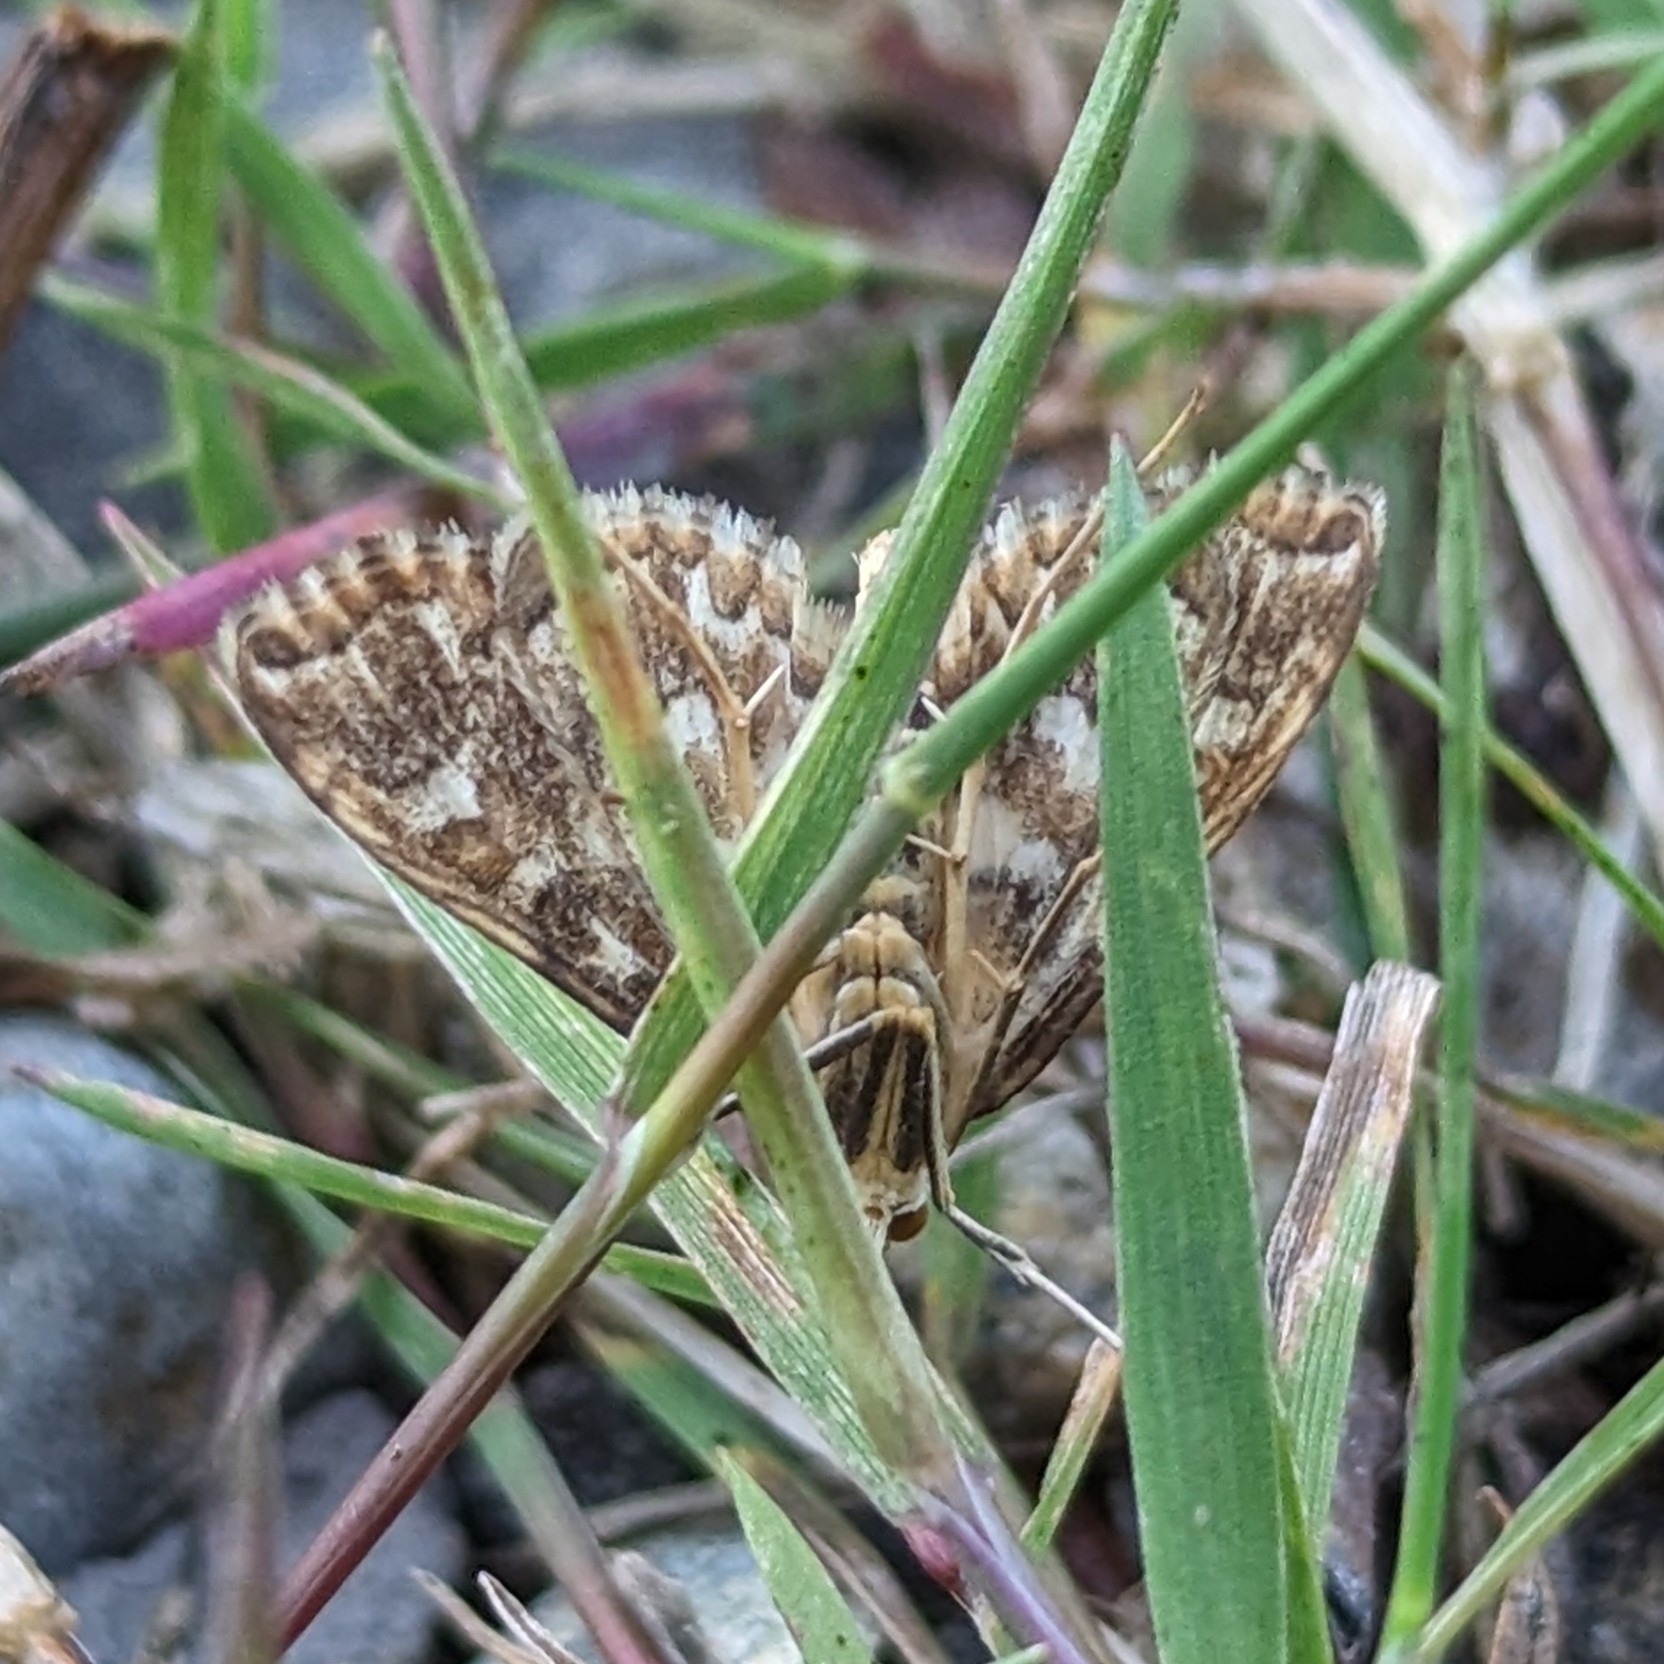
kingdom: Animalia
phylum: Arthropoda
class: Insecta
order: Lepidoptera
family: Crambidae
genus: Elophila
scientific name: Elophila icciusalis
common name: Pondside pyralid moth
